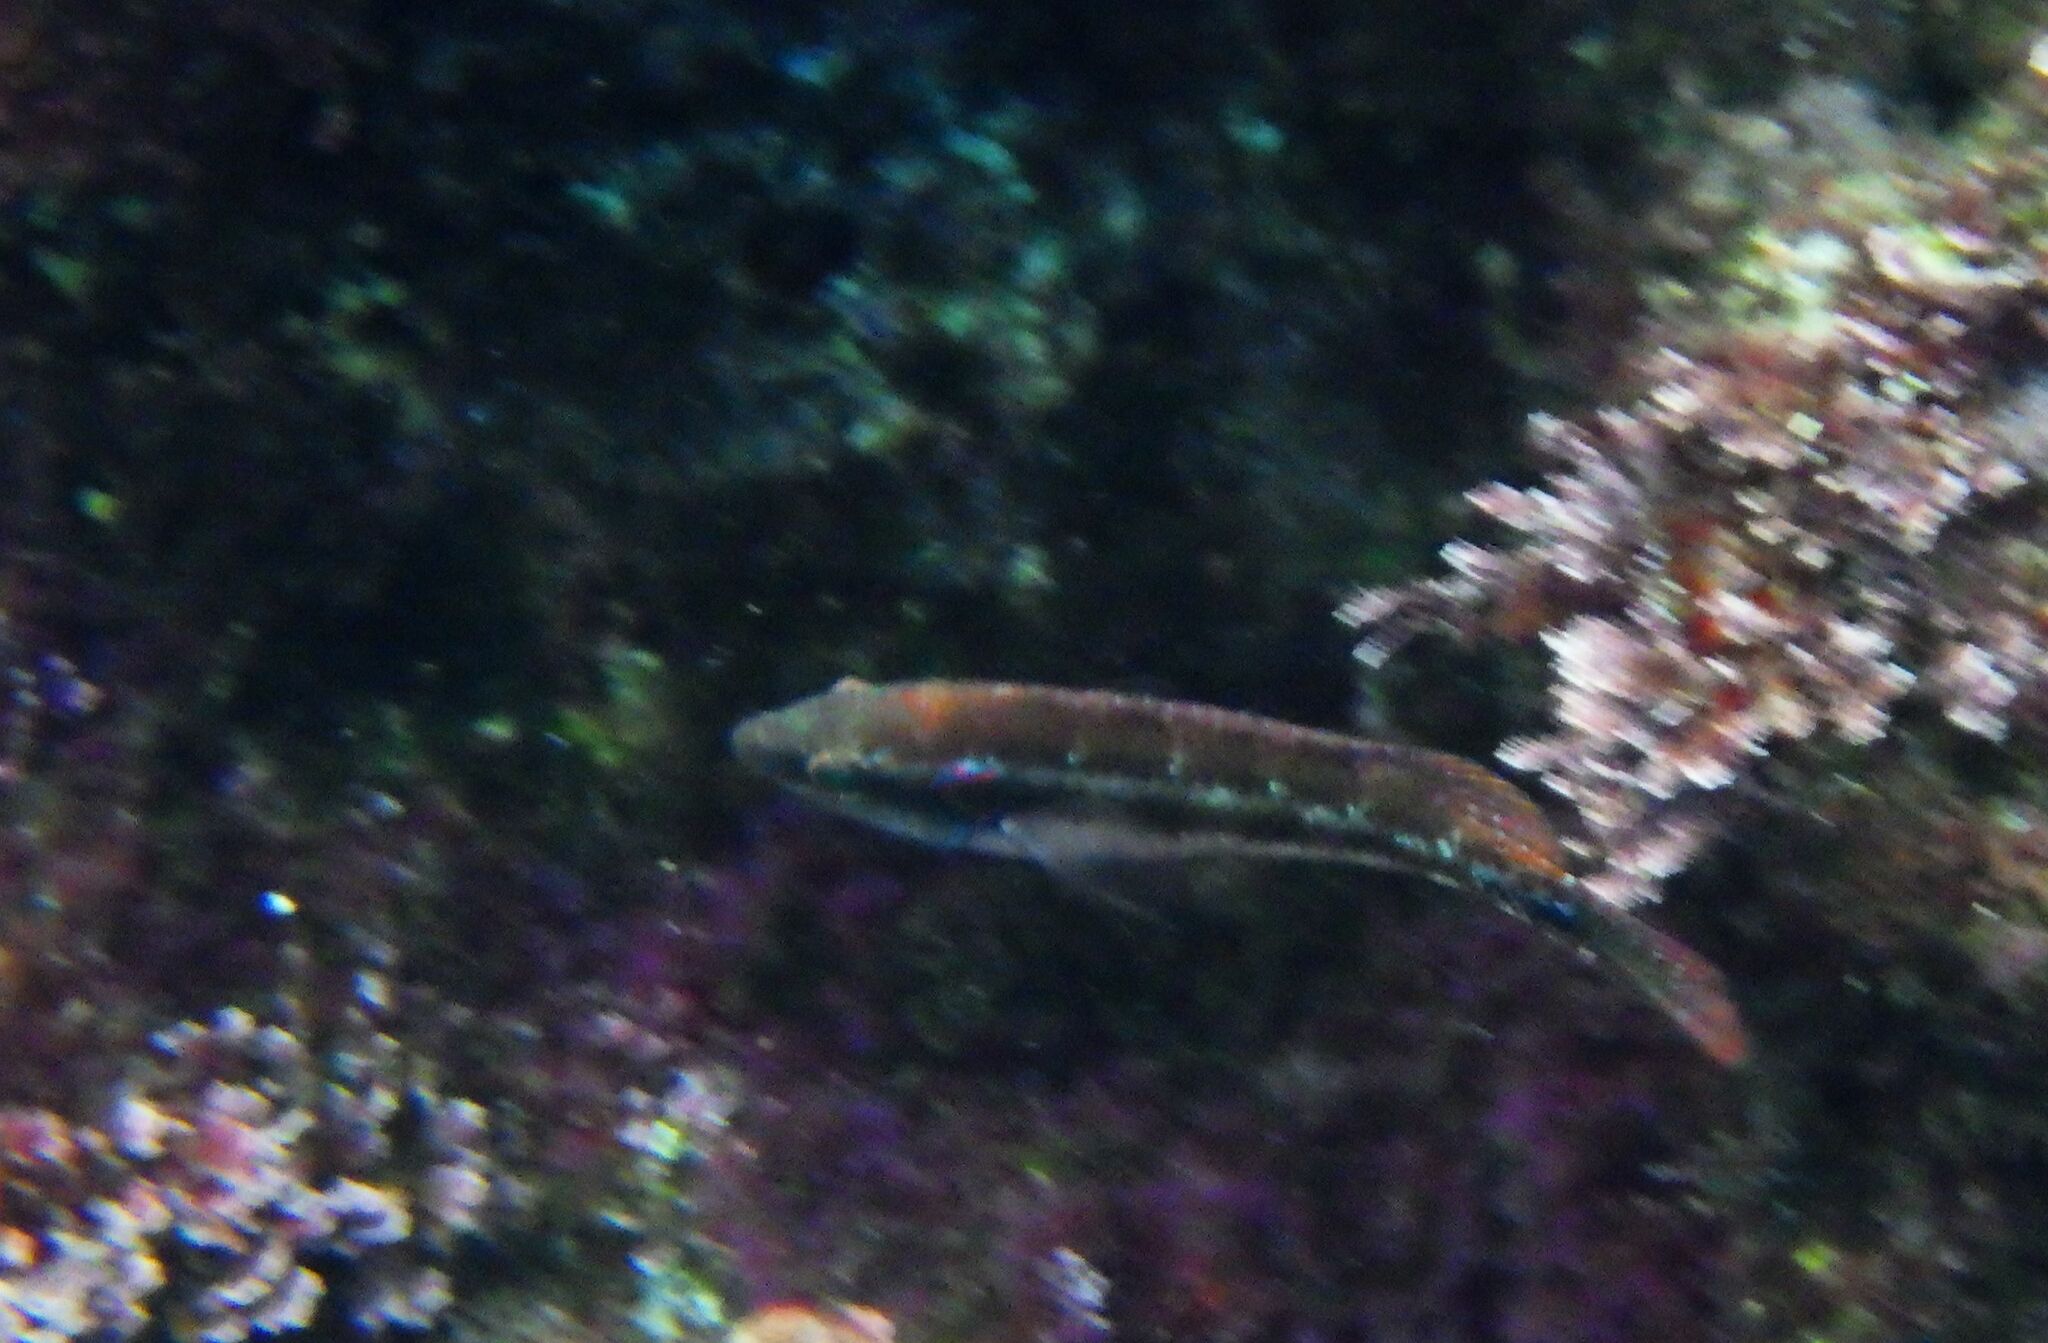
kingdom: Animalia
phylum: Chordata
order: Perciformes
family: Labridae
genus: Symphodus
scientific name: Symphodus ocellatus
